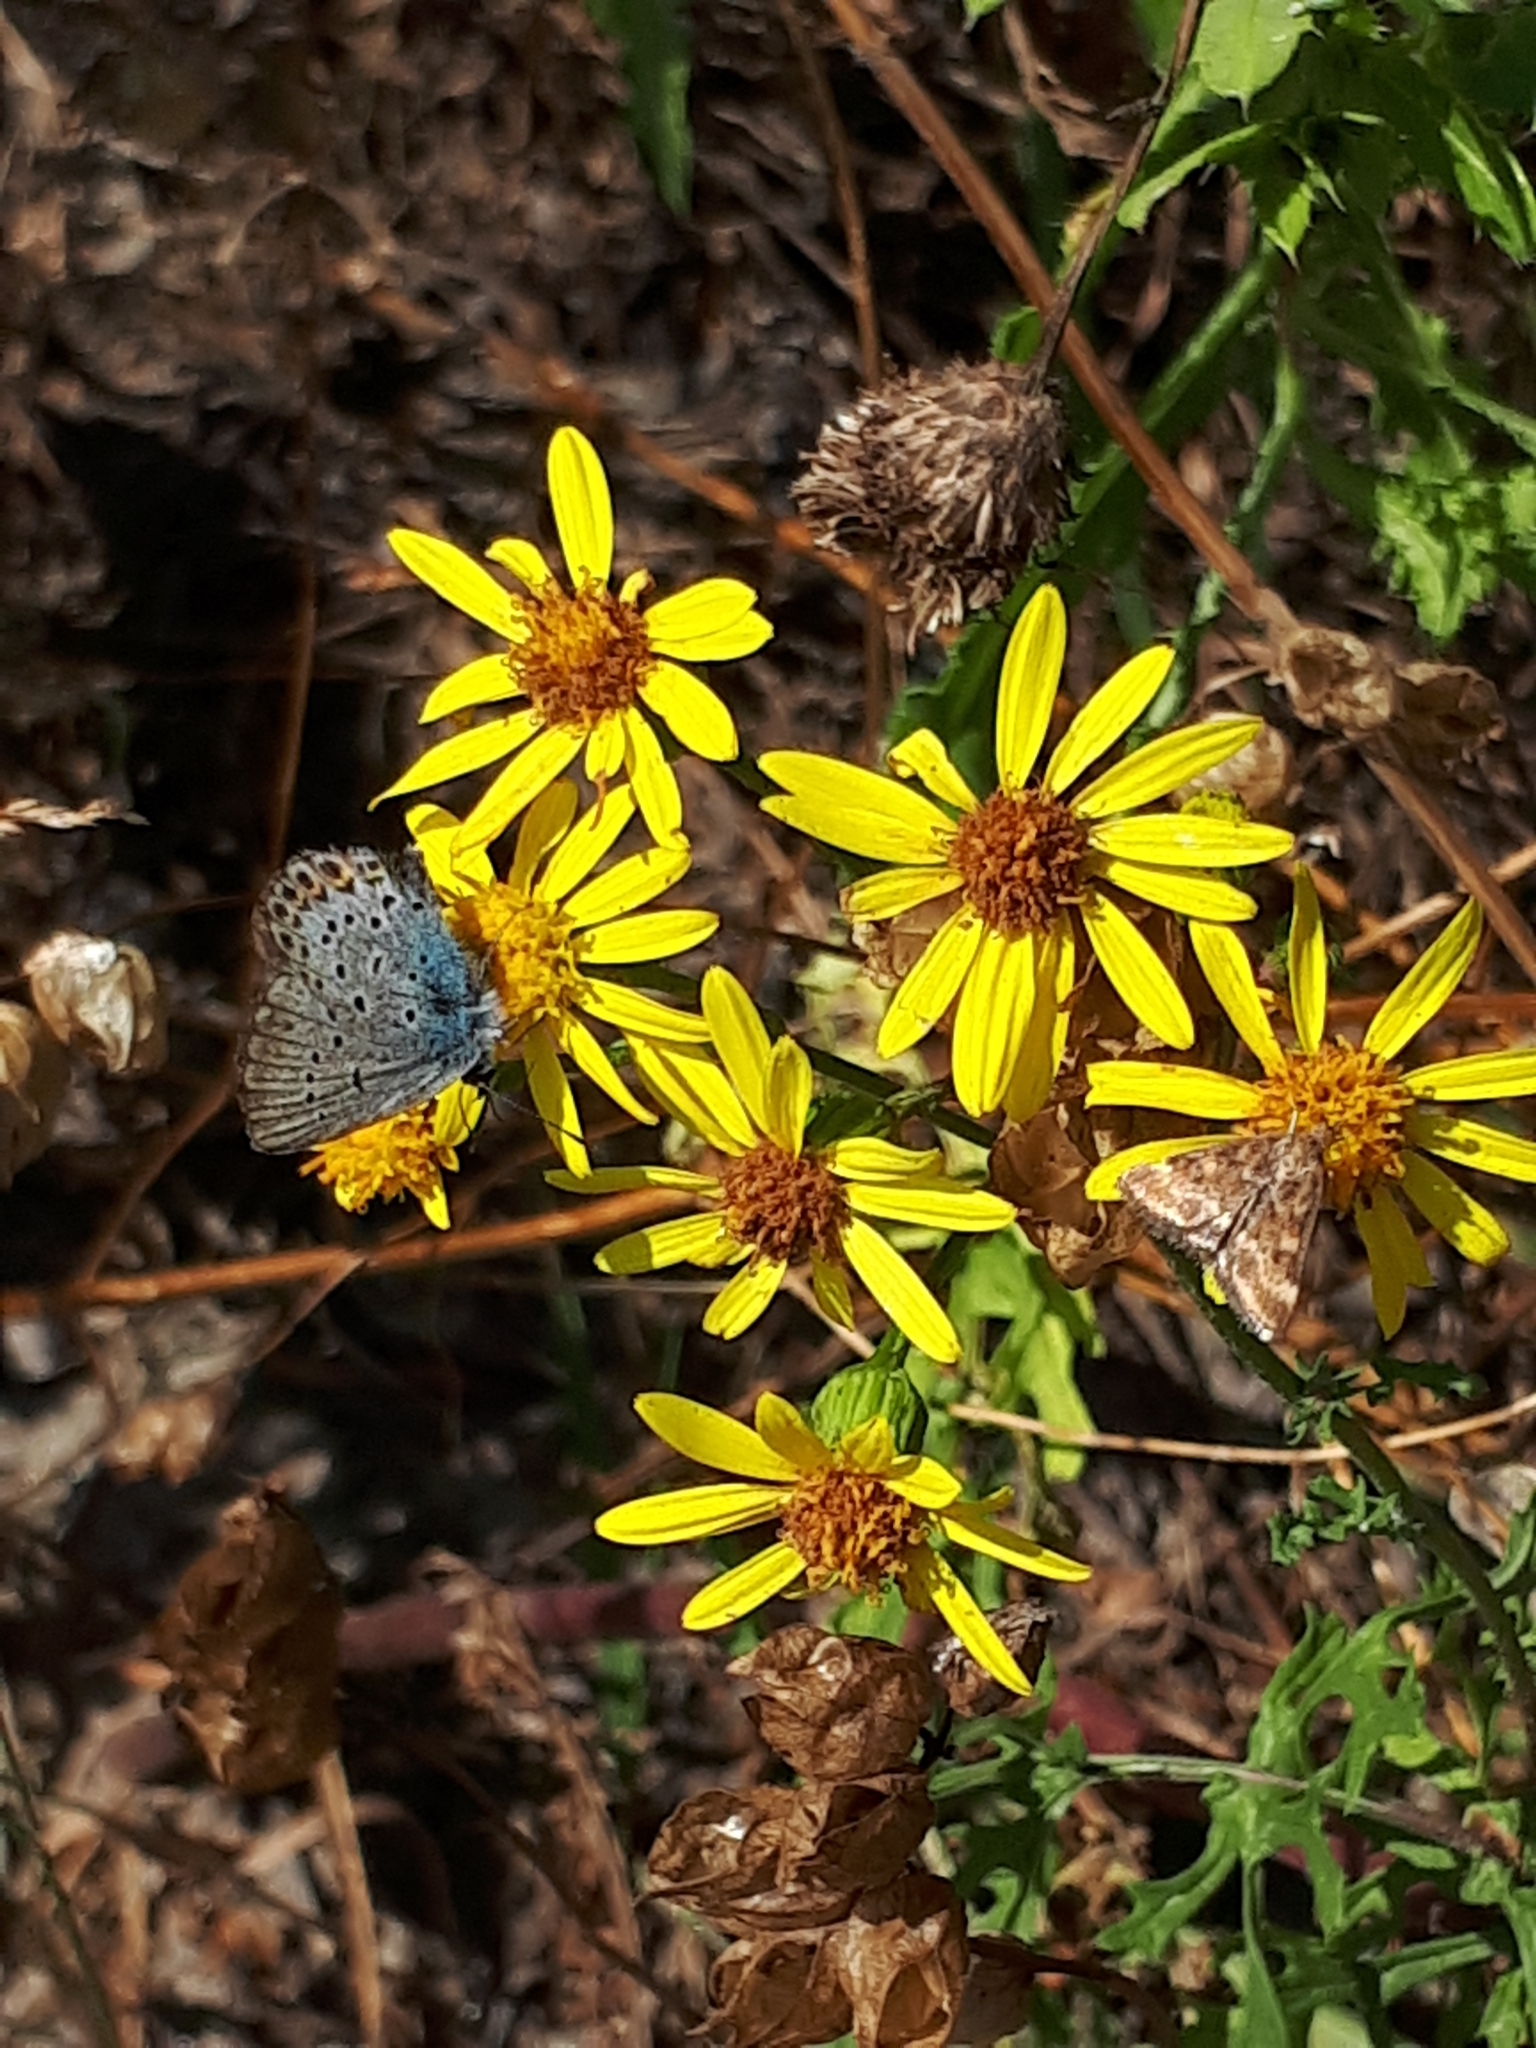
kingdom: Animalia
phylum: Arthropoda
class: Insecta
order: Lepidoptera
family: Crambidae
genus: Pyrausta
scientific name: Pyrausta despicata
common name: Straw-barred pearl
